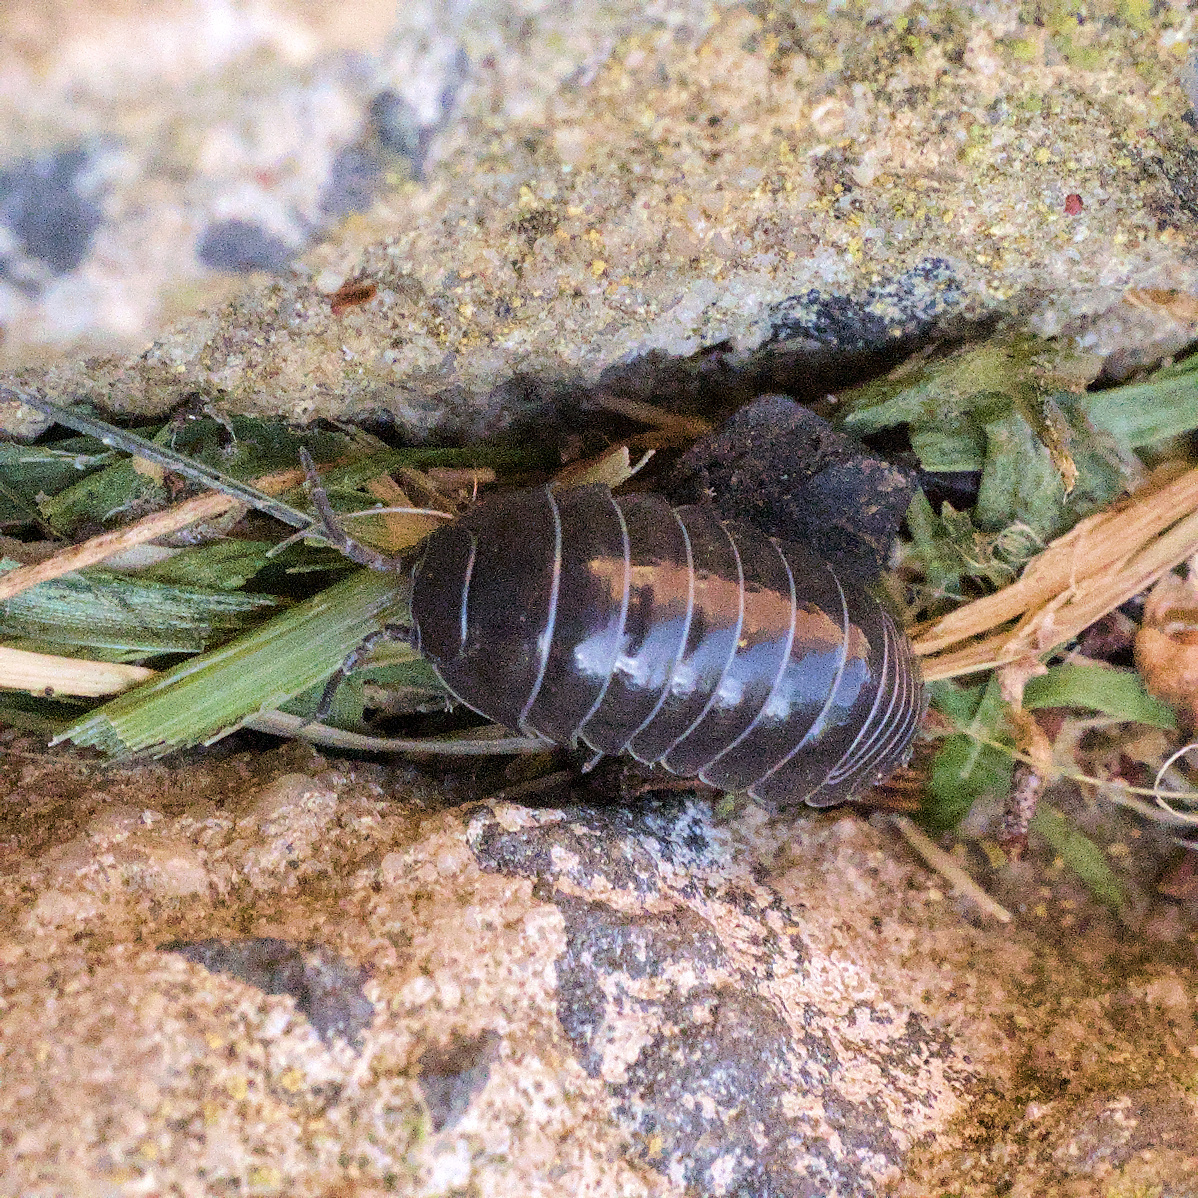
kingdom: Animalia
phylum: Arthropoda
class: Malacostraca
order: Isopoda
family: Armadillidiidae
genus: Armadillidium
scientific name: Armadillidium vulgare
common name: Common pill woodlouse
